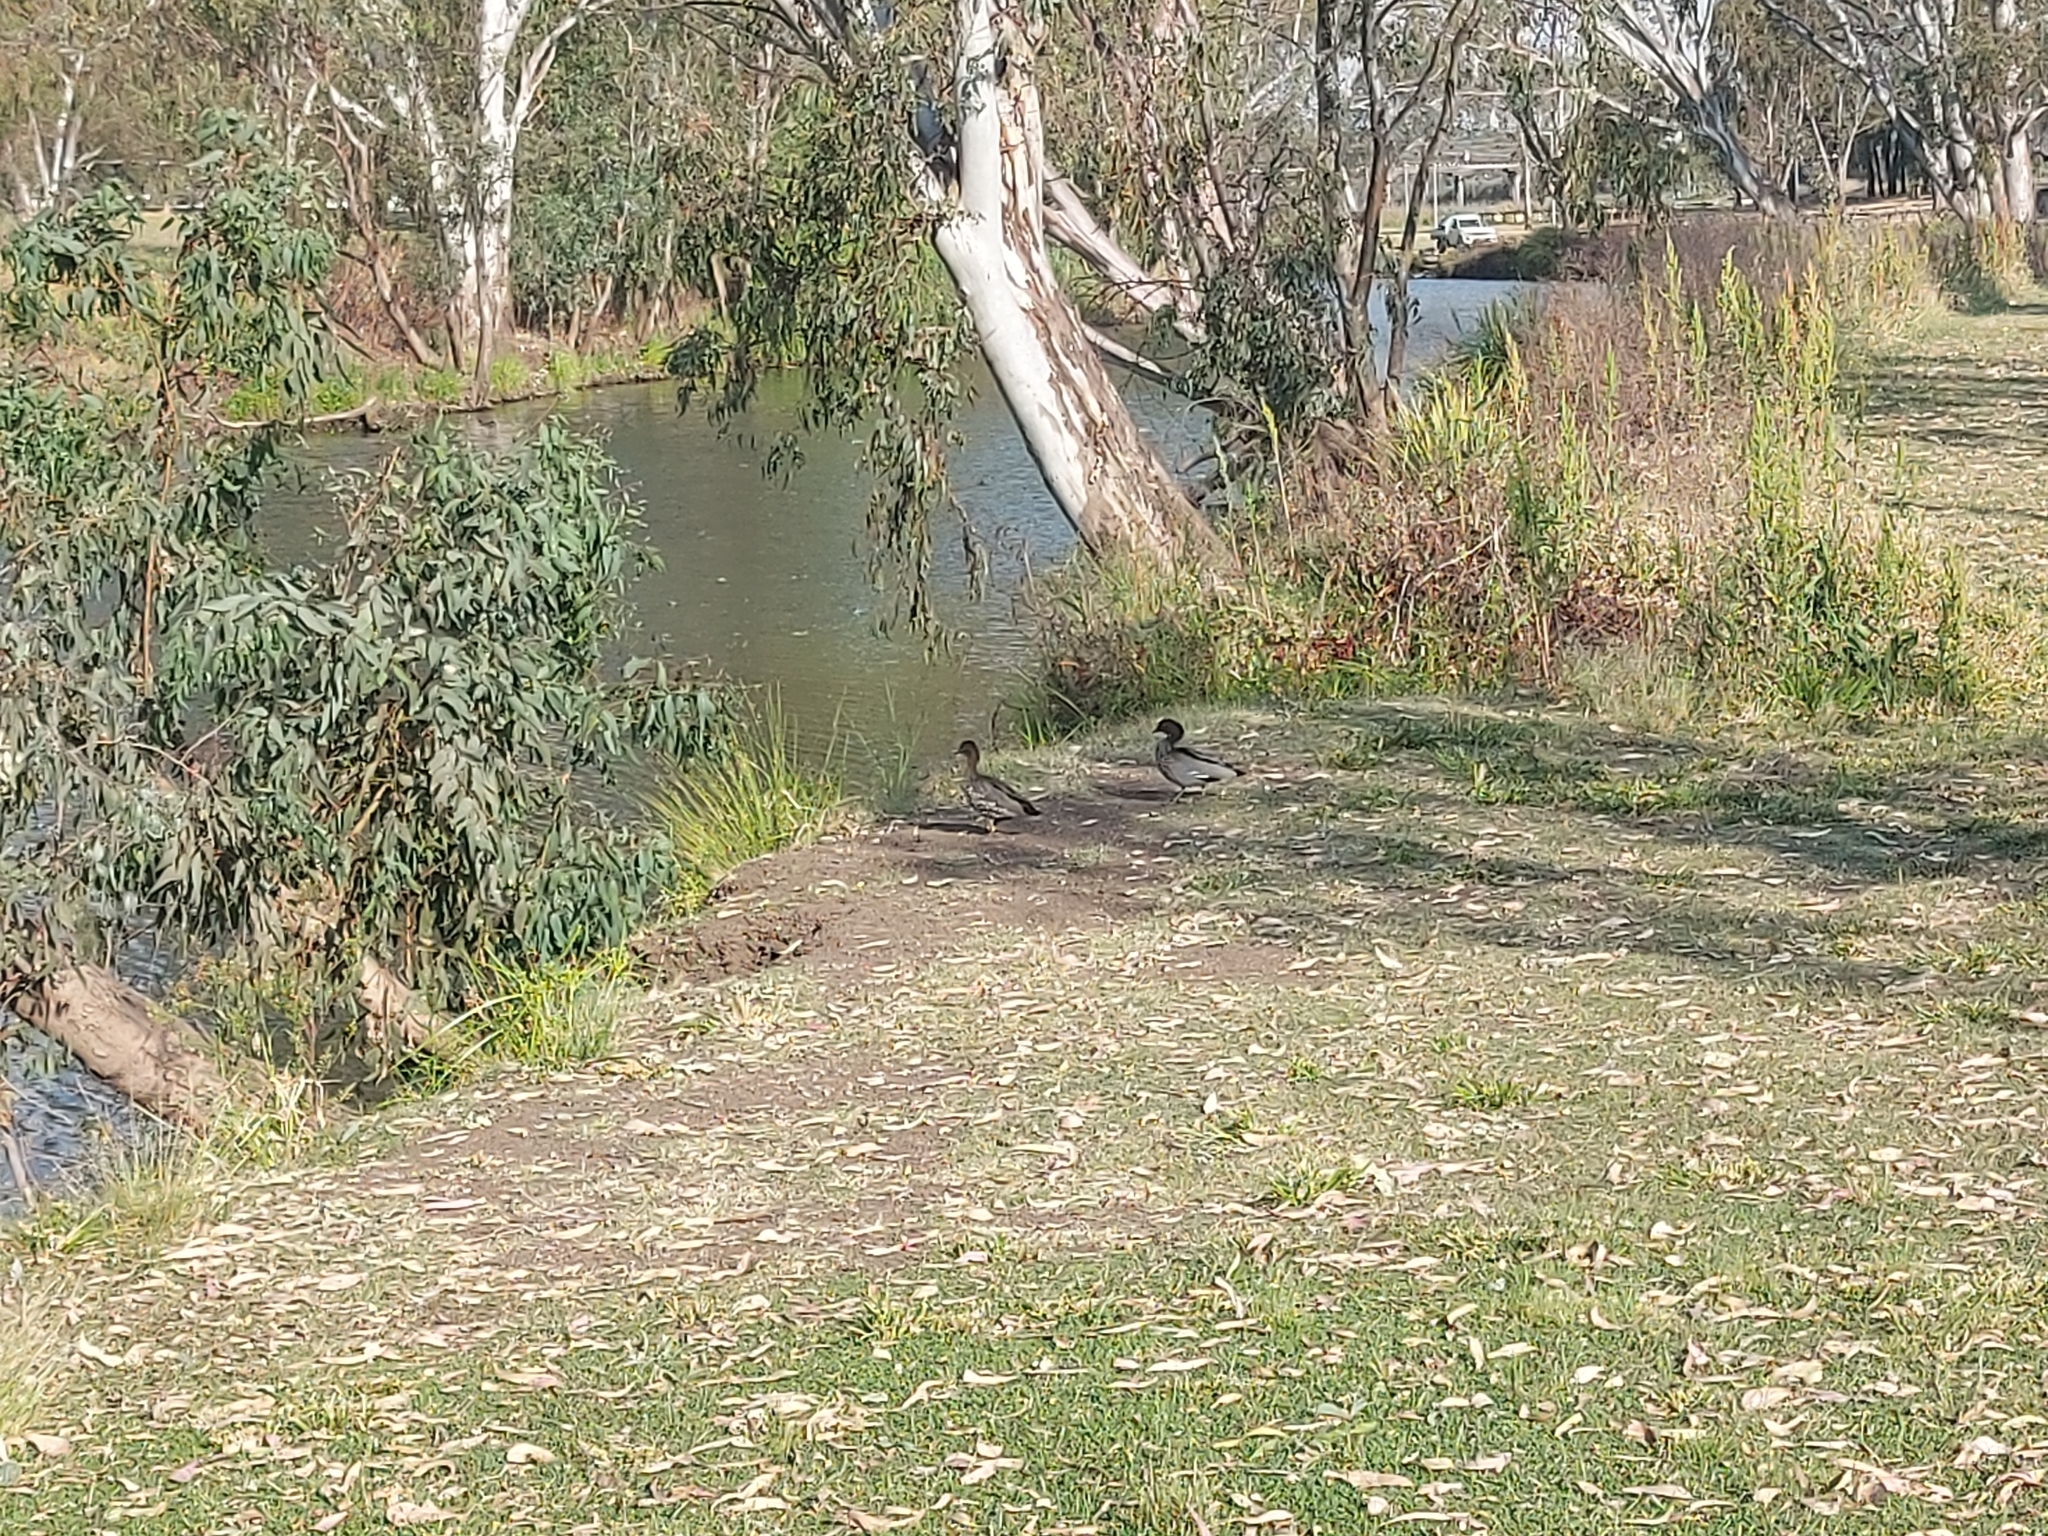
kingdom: Animalia
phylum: Chordata
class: Aves
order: Anseriformes
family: Anatidae
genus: Chenonetta
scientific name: Chenonetta jubata
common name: Maned duck
